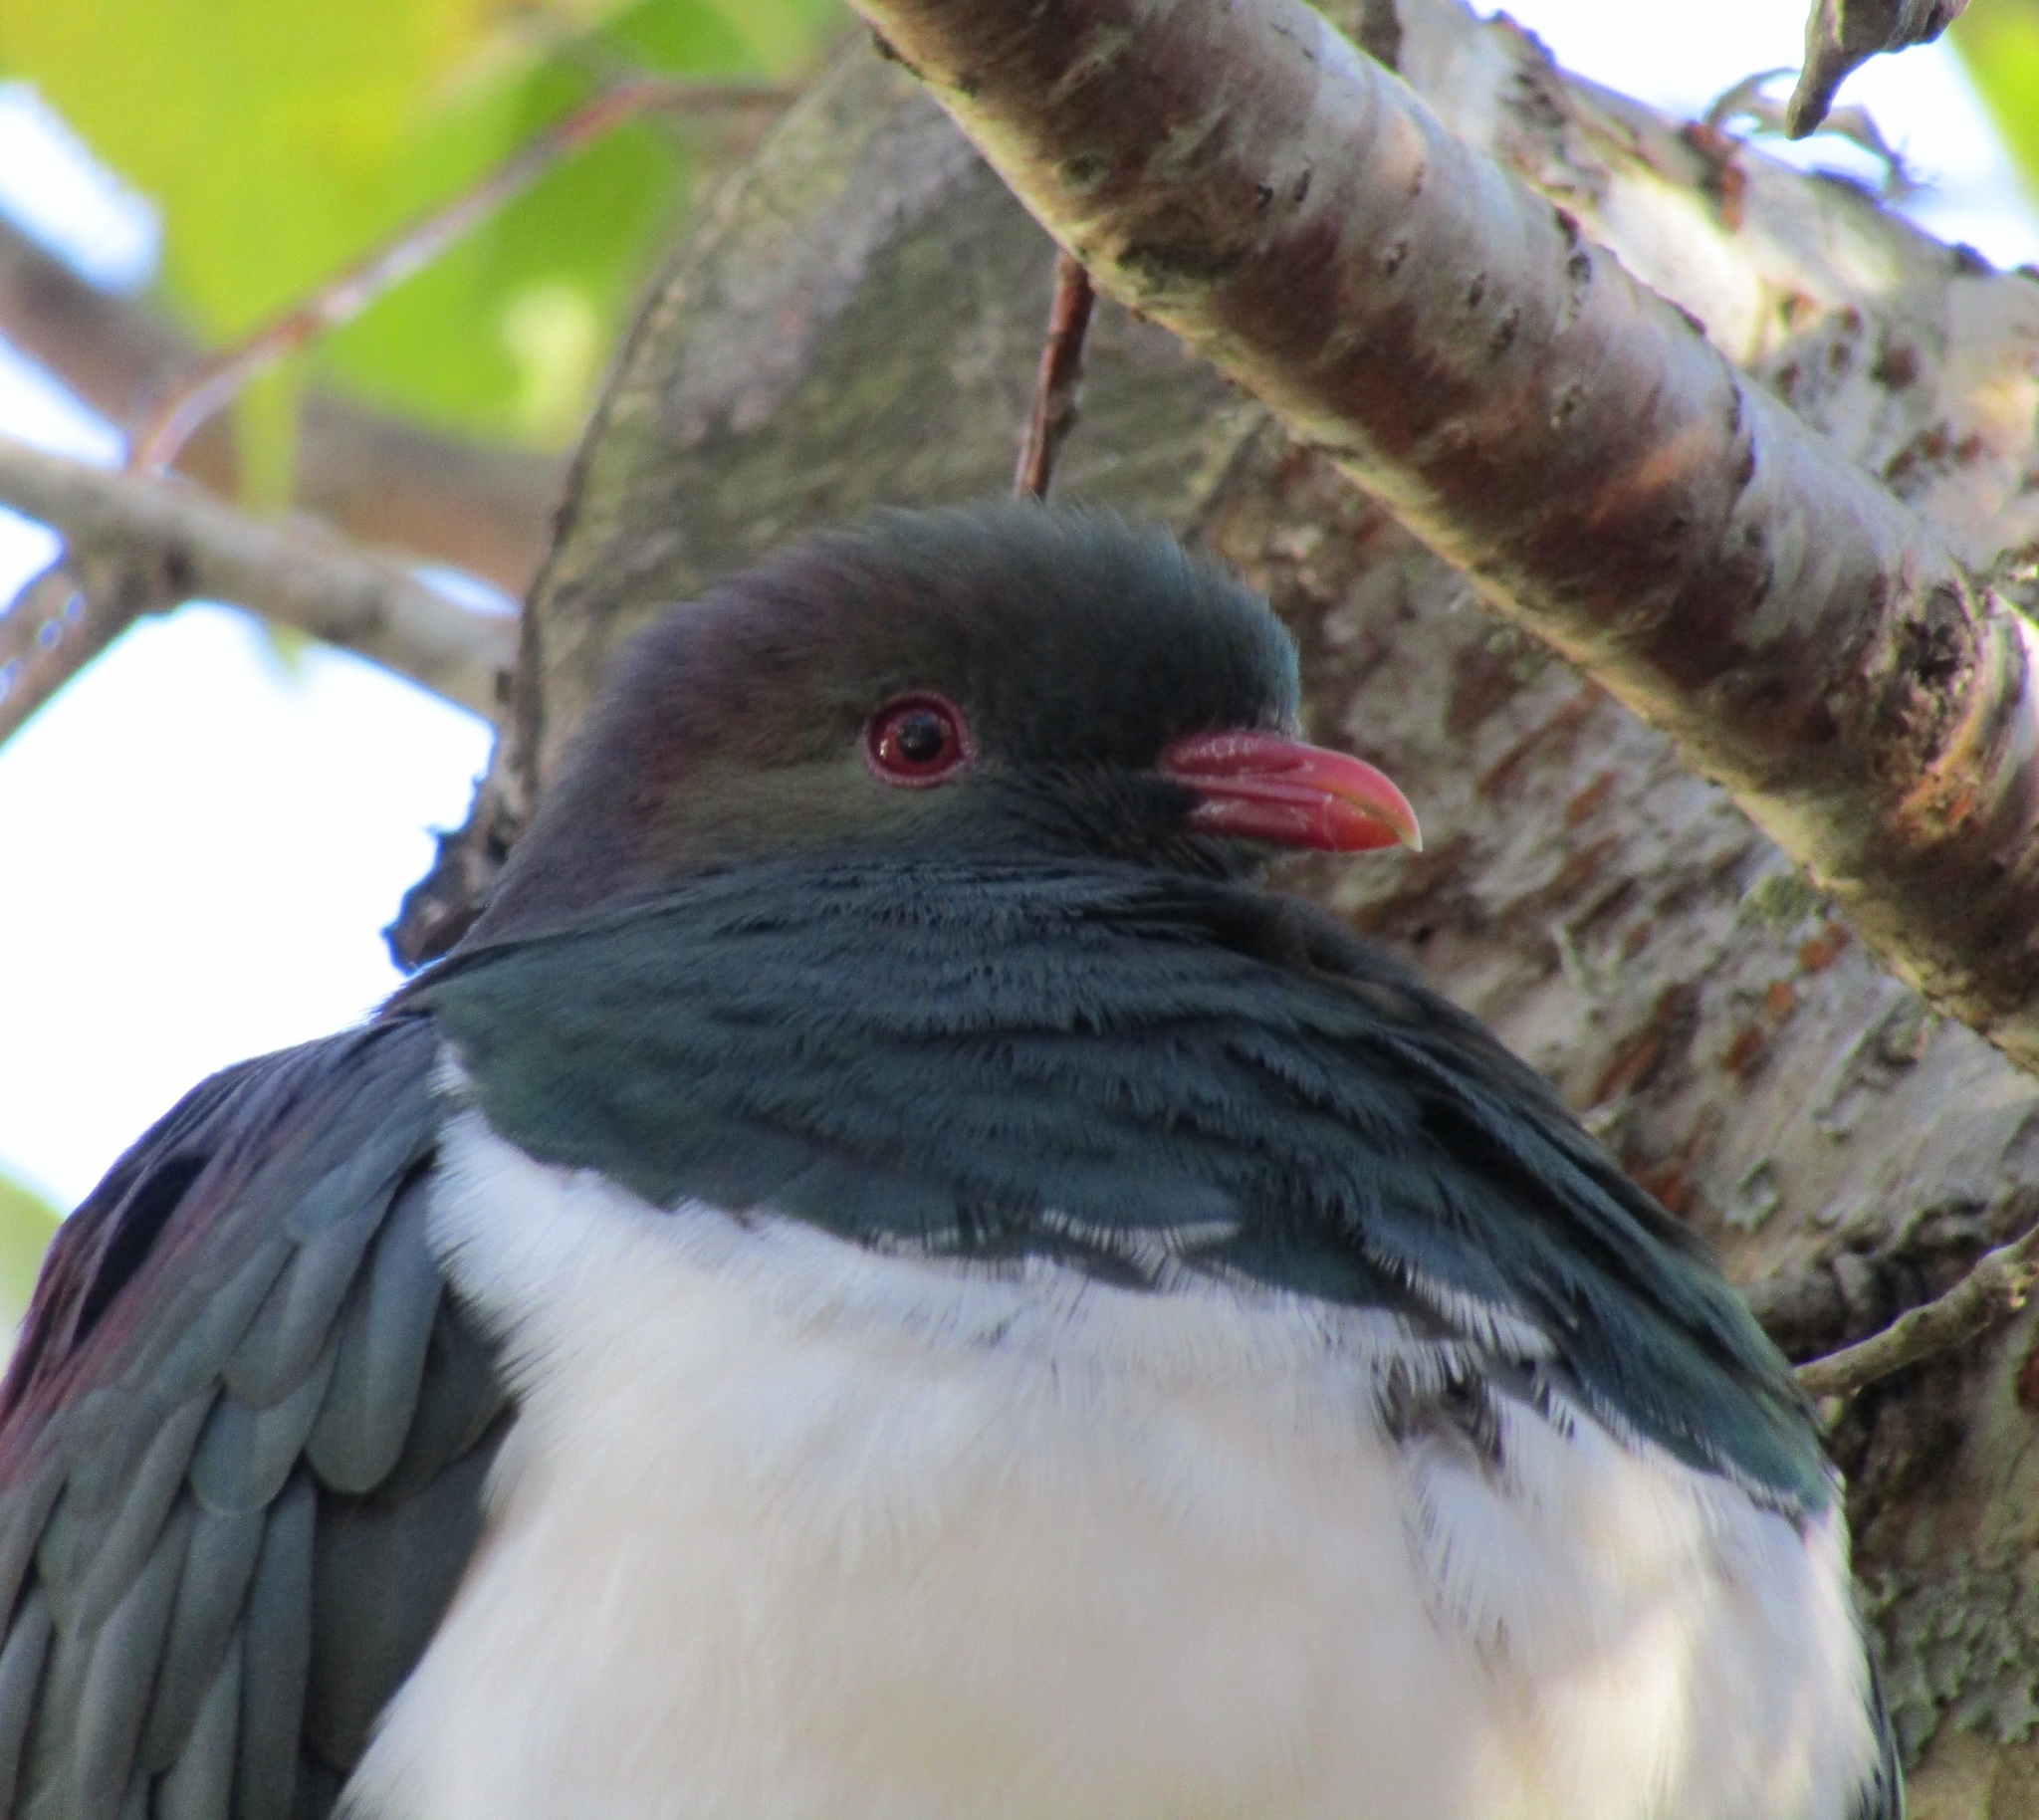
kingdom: Animalia
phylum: Chordata
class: Aves
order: Columbiformes
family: Columbidae
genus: Hemiphaga
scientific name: Hemiphaga novaeseelandiae
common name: New zealand pigeon
